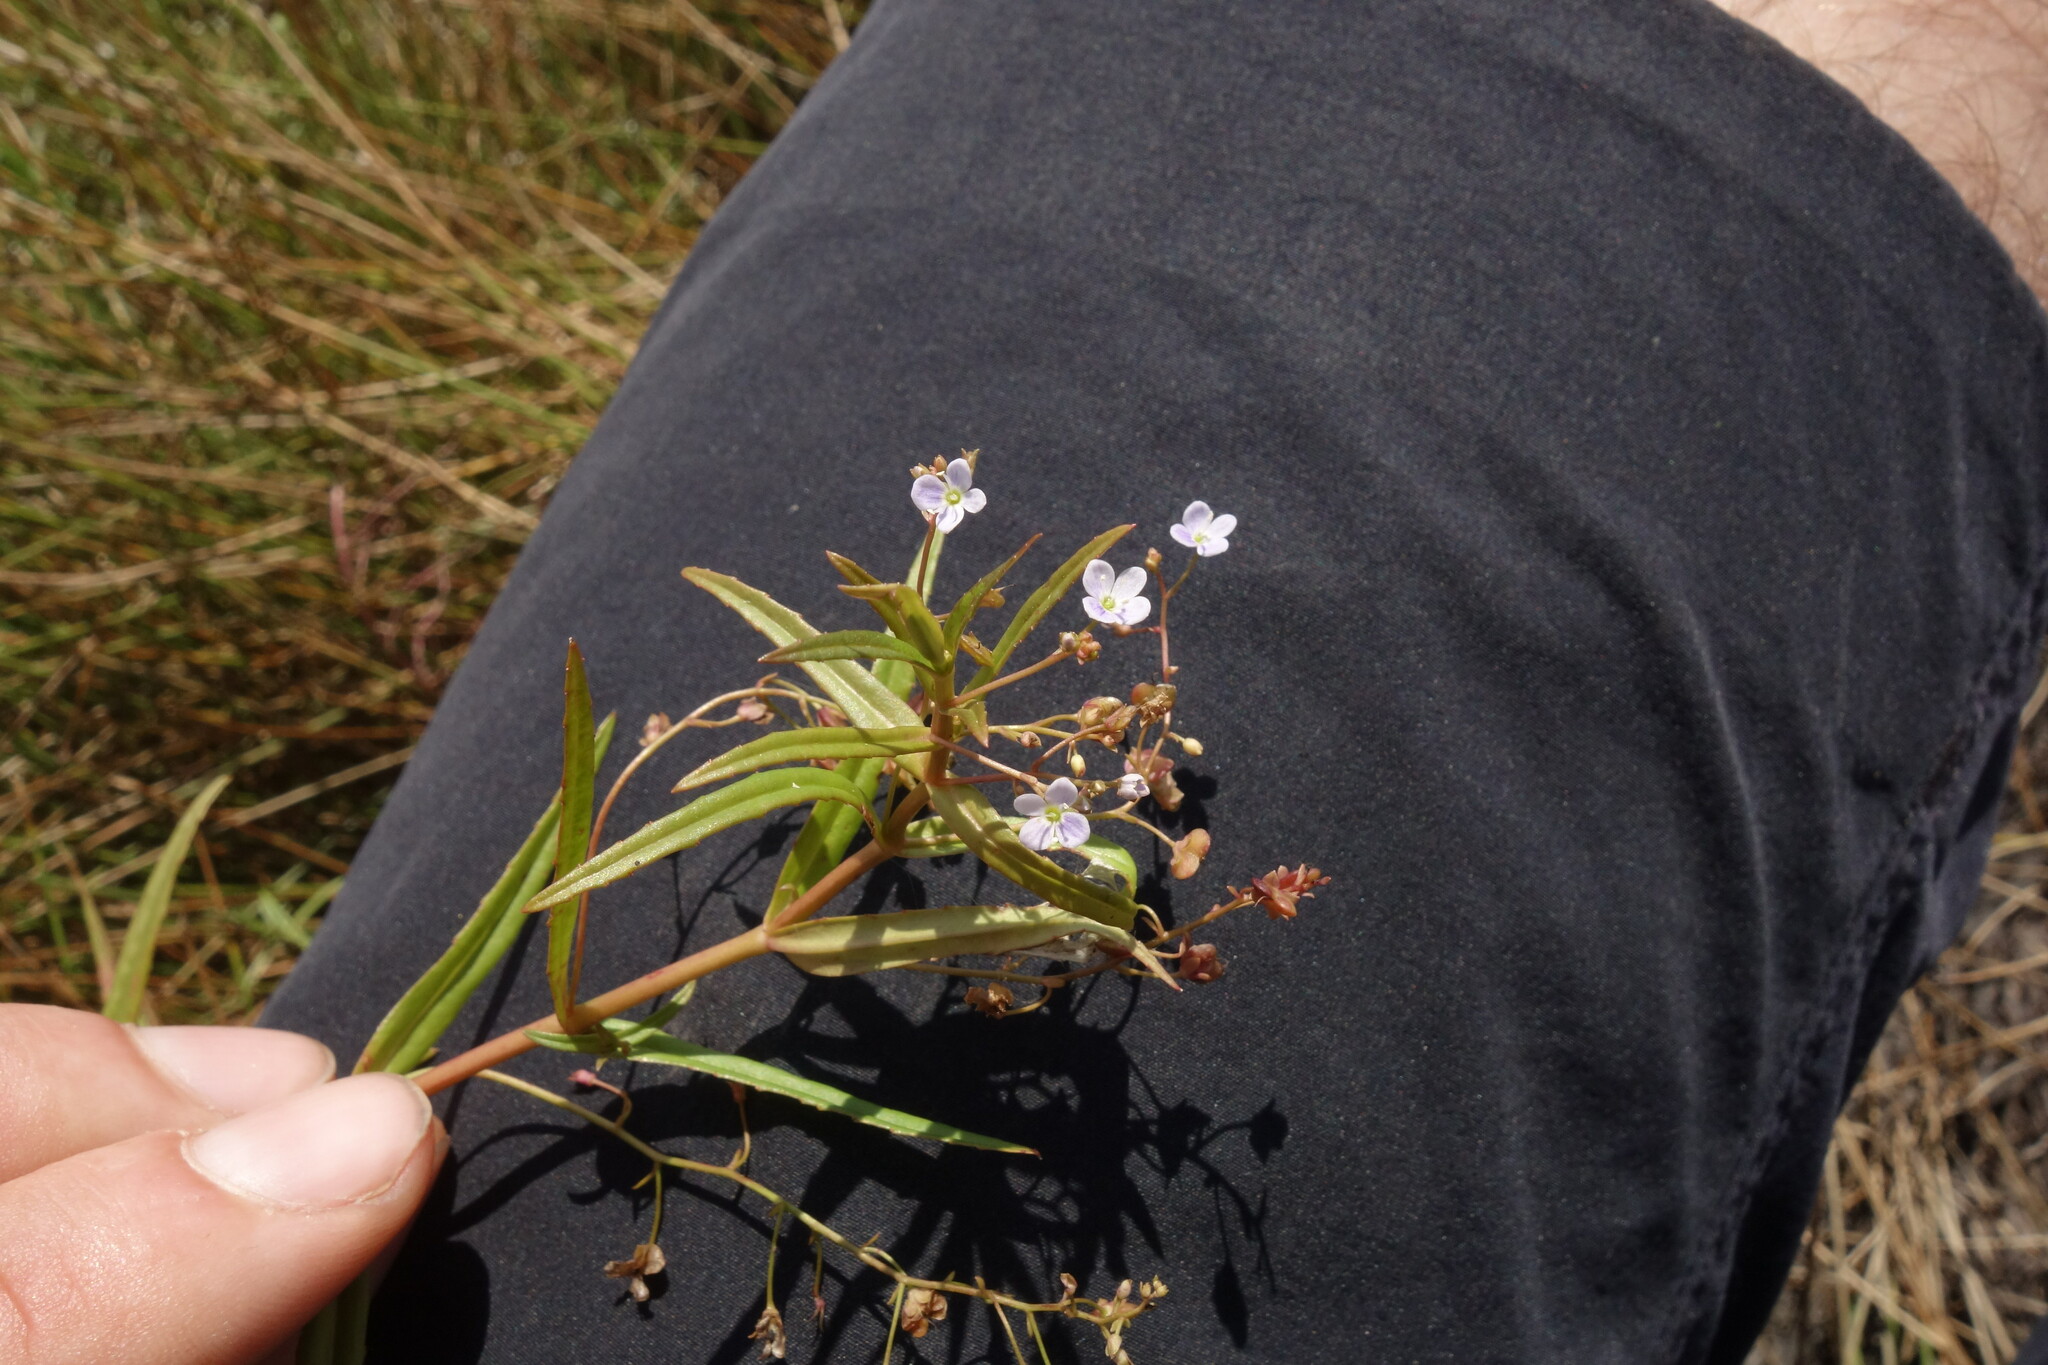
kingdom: Plantae
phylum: Tracheophyta
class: Magnoliopsida
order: Lamiales
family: Plantaginaceae
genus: Veronica
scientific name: Veronica scutellata
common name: Marsh speedwell
